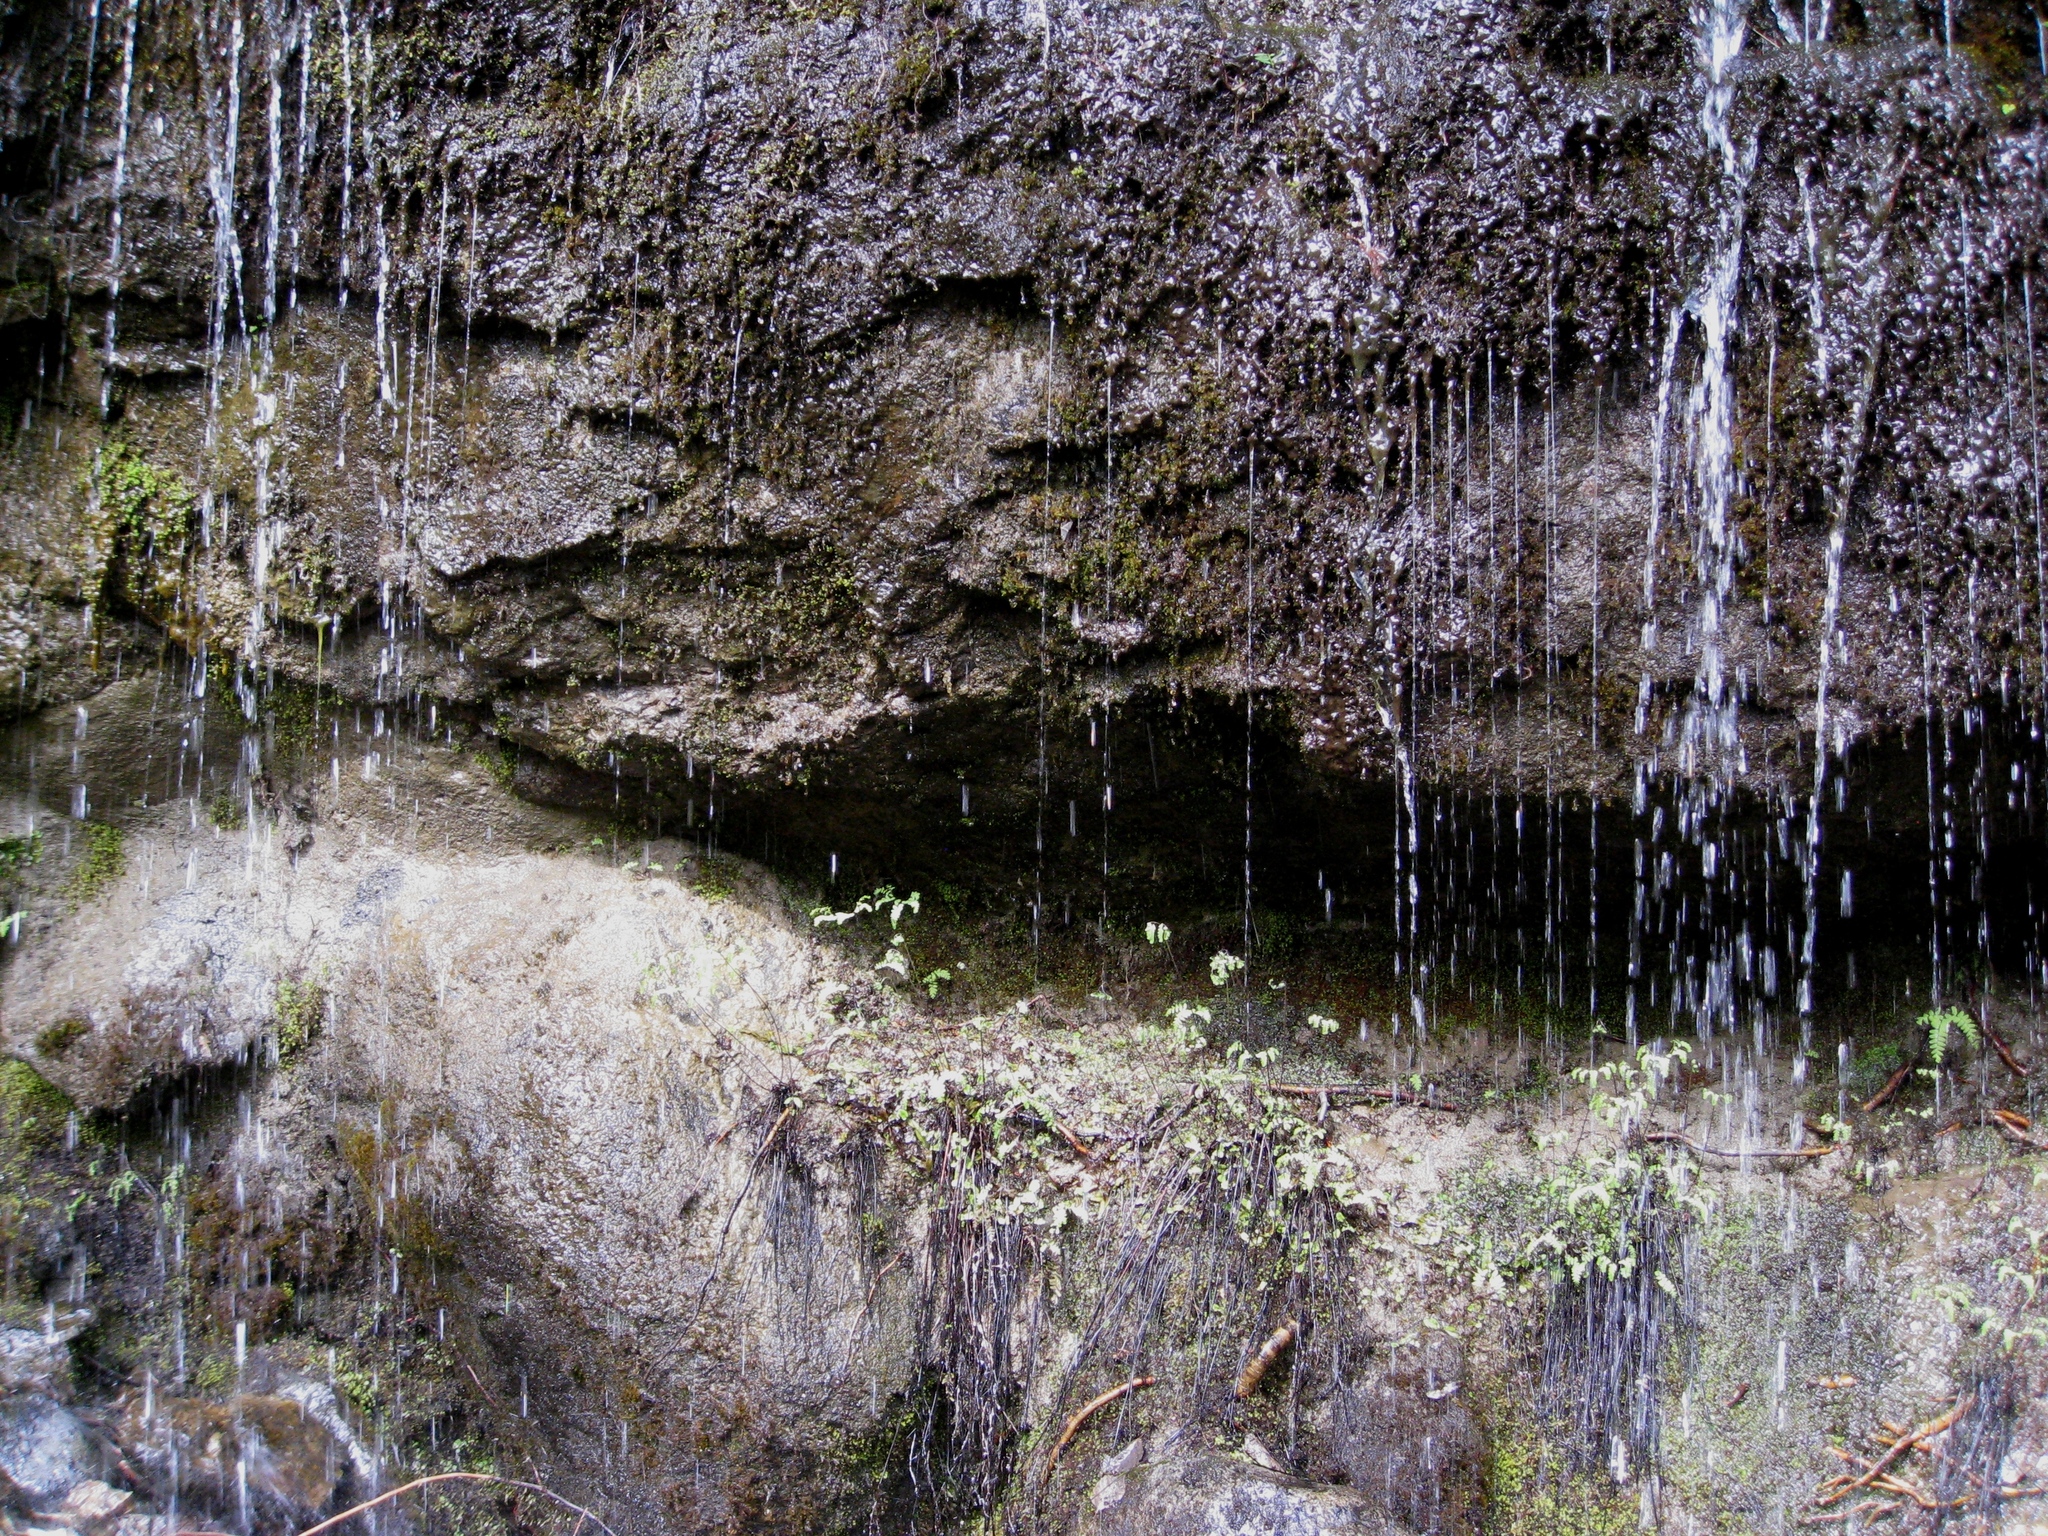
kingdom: Plantae
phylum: Tracheophyta
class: Polypodiopsida
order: Polypodiales
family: Pteridaceae
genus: Adiantum
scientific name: Adiantum aleuticum
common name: Aleutian maidenhair fern
